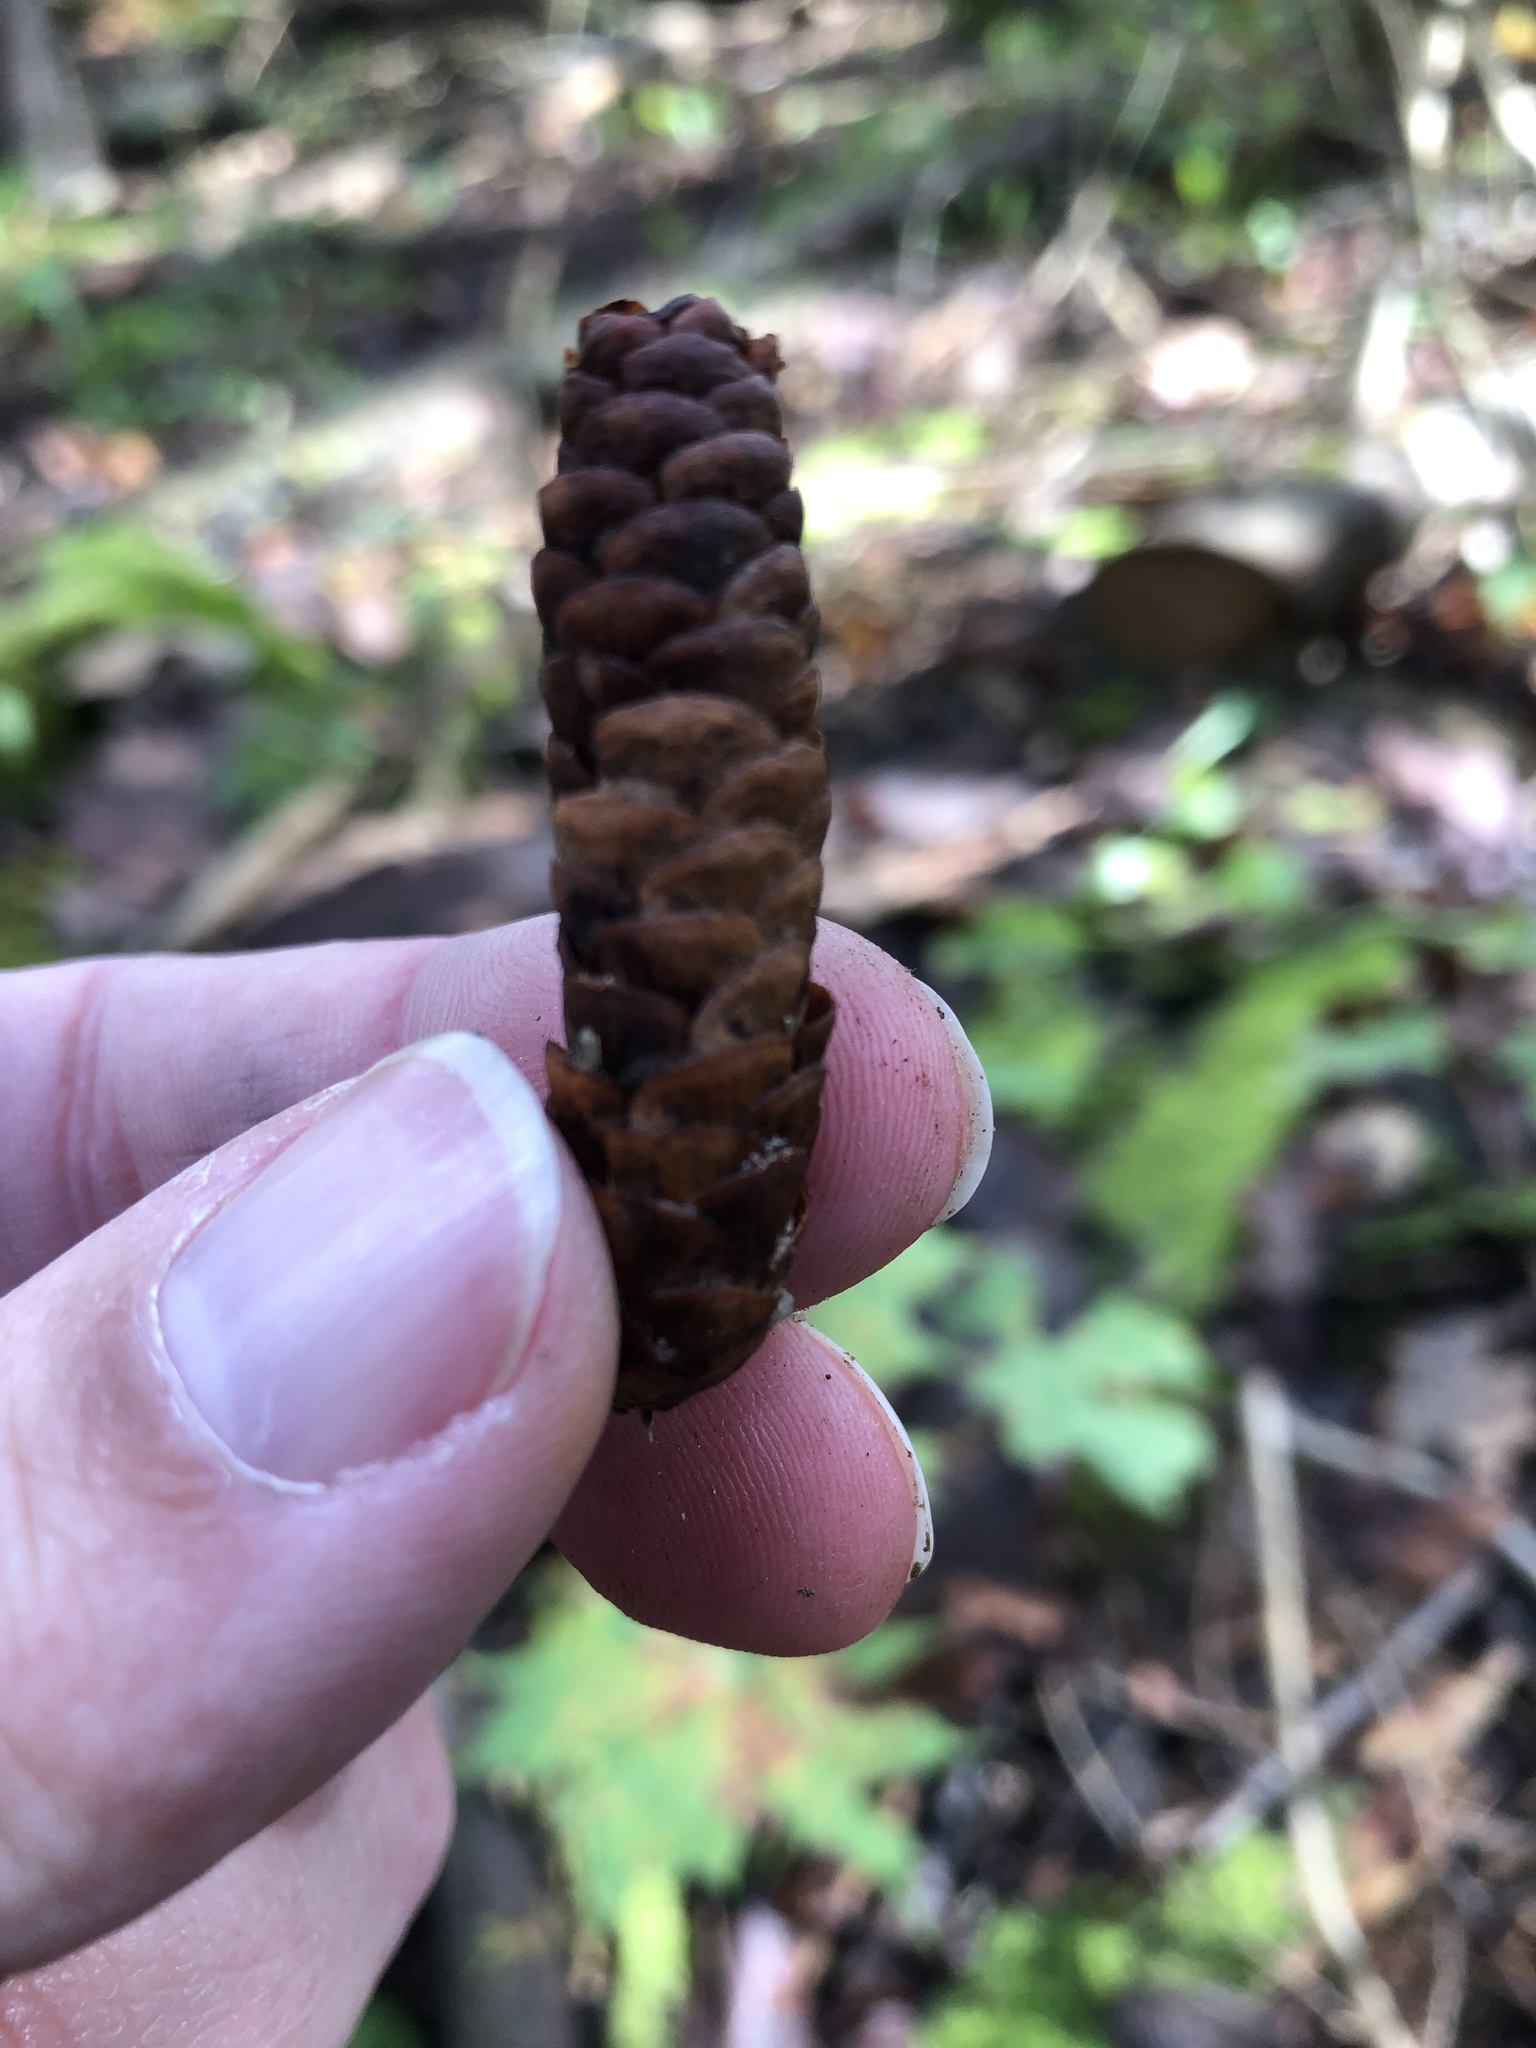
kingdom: Plantae
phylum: Tracheophyta
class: Pinopsida
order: Pinales
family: Pinaceae
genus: Picea
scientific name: Picea glauca
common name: White spruce
